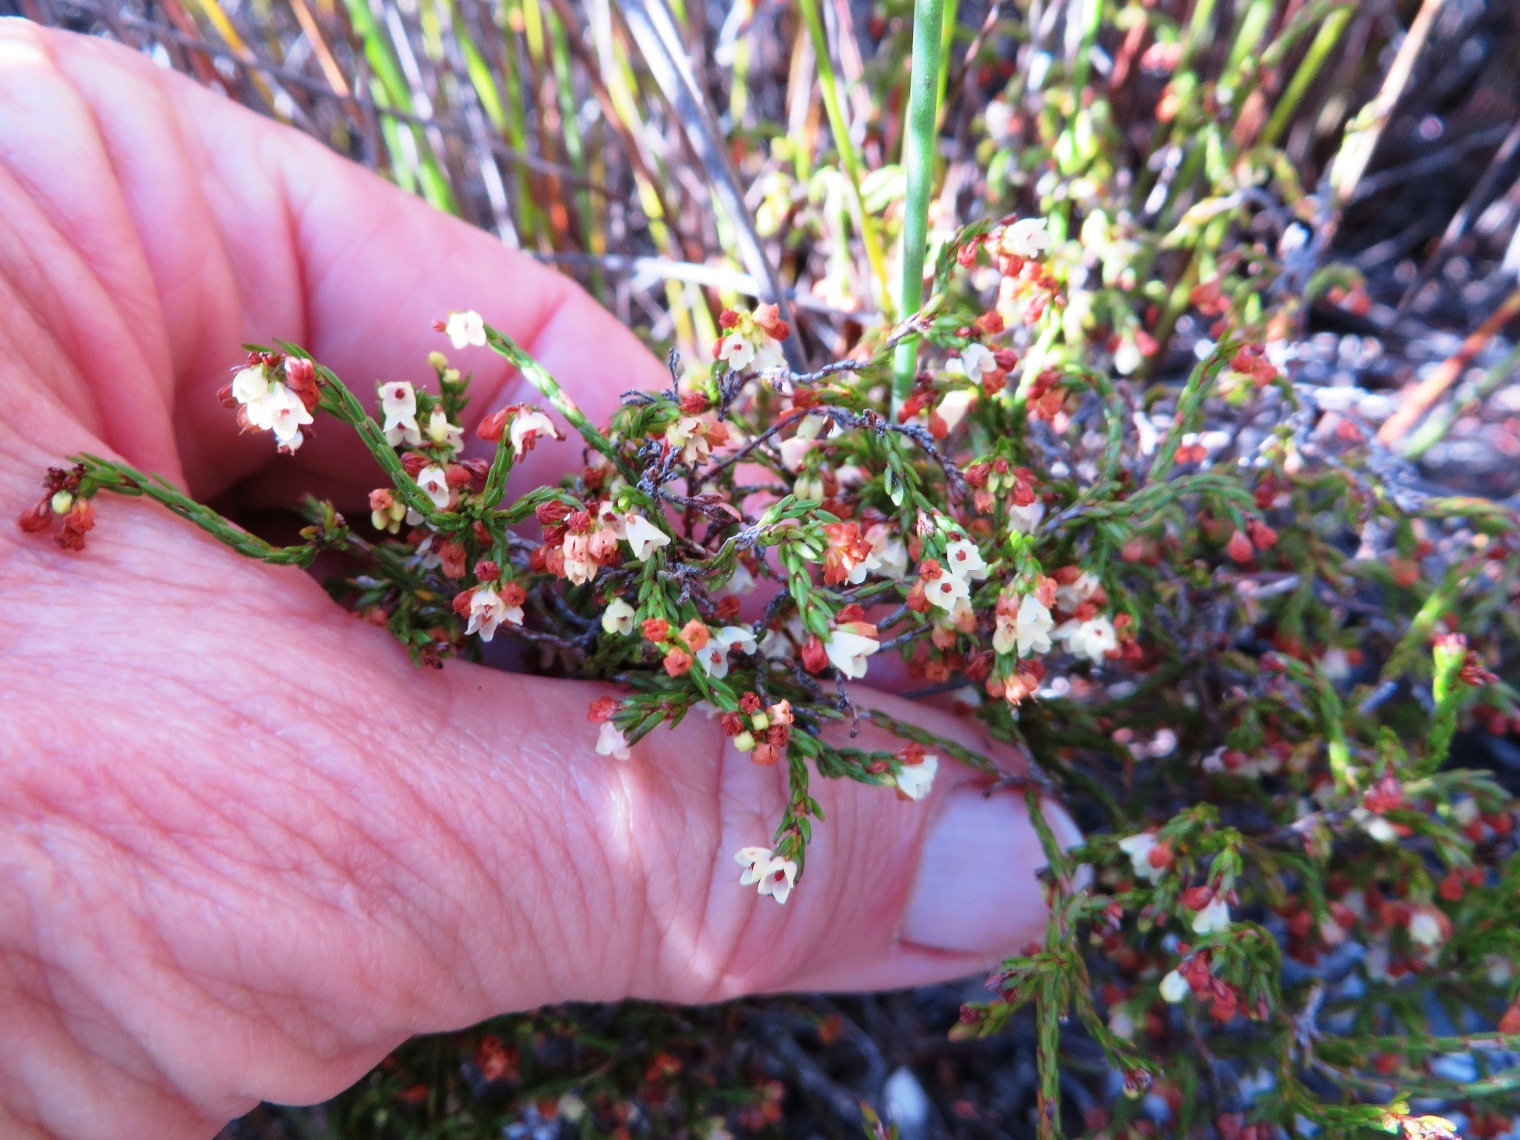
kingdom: Plantae
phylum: Tracheophyta
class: Magnoliopsida
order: Ericales
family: Ericaceae
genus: Erica
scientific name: Erica multiflexuosa
